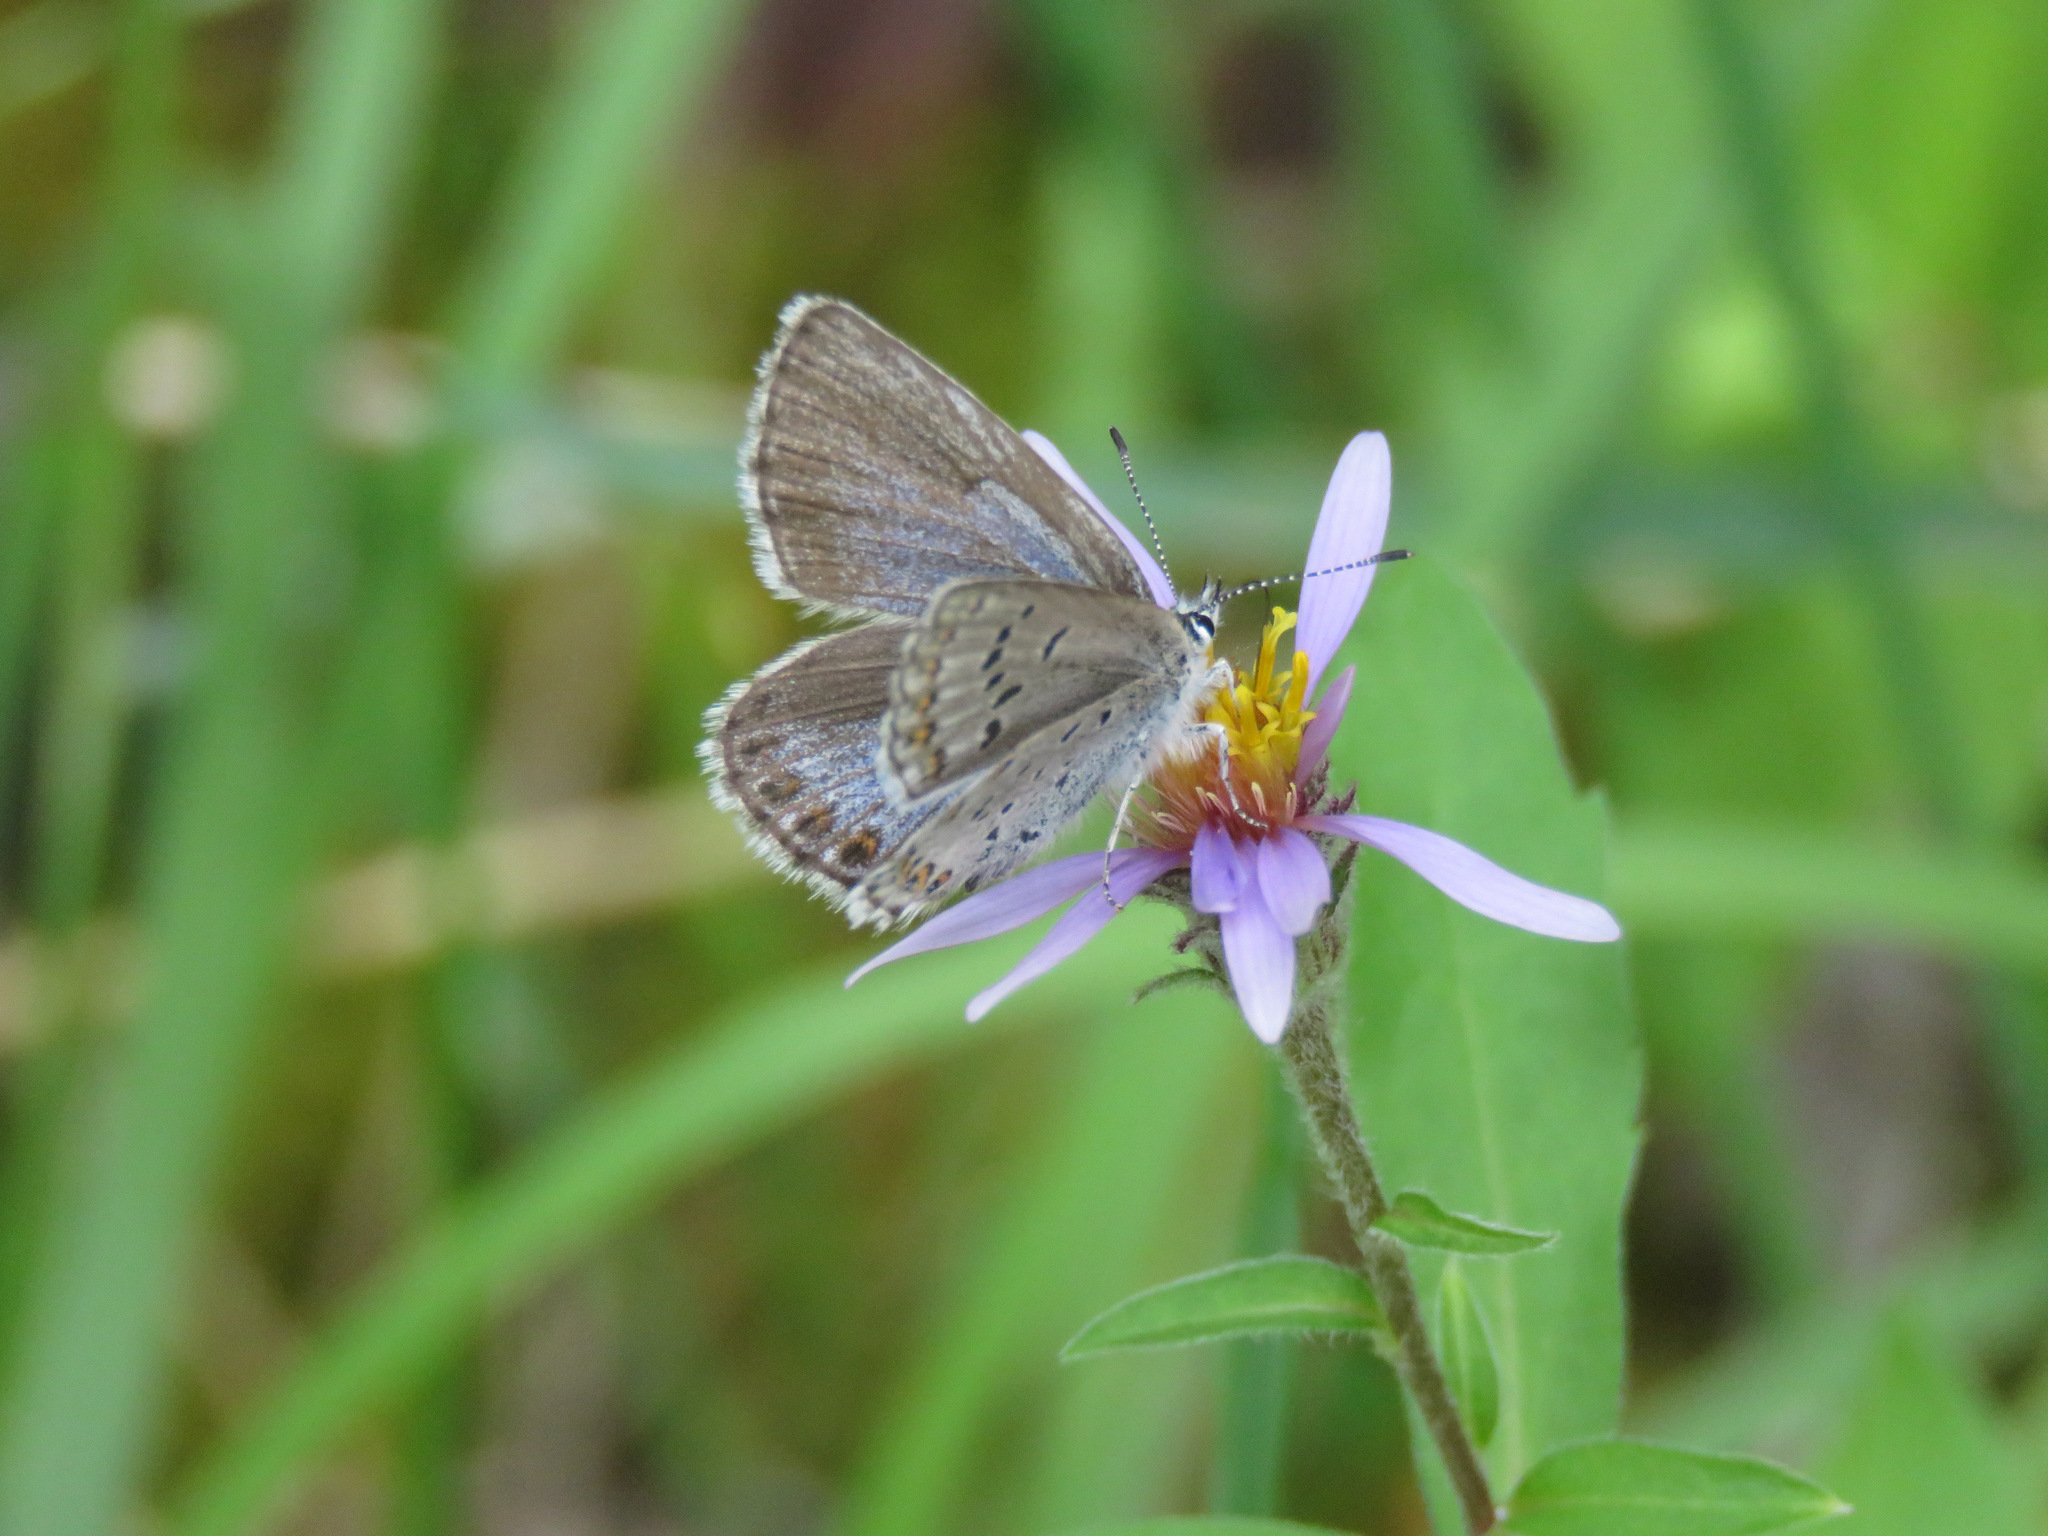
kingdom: Animalia
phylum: Arthropoda
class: Insecta
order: Lepidoptera
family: Lycaenidae
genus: Lycaeides
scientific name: Lycaeides idas
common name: Northern blue
